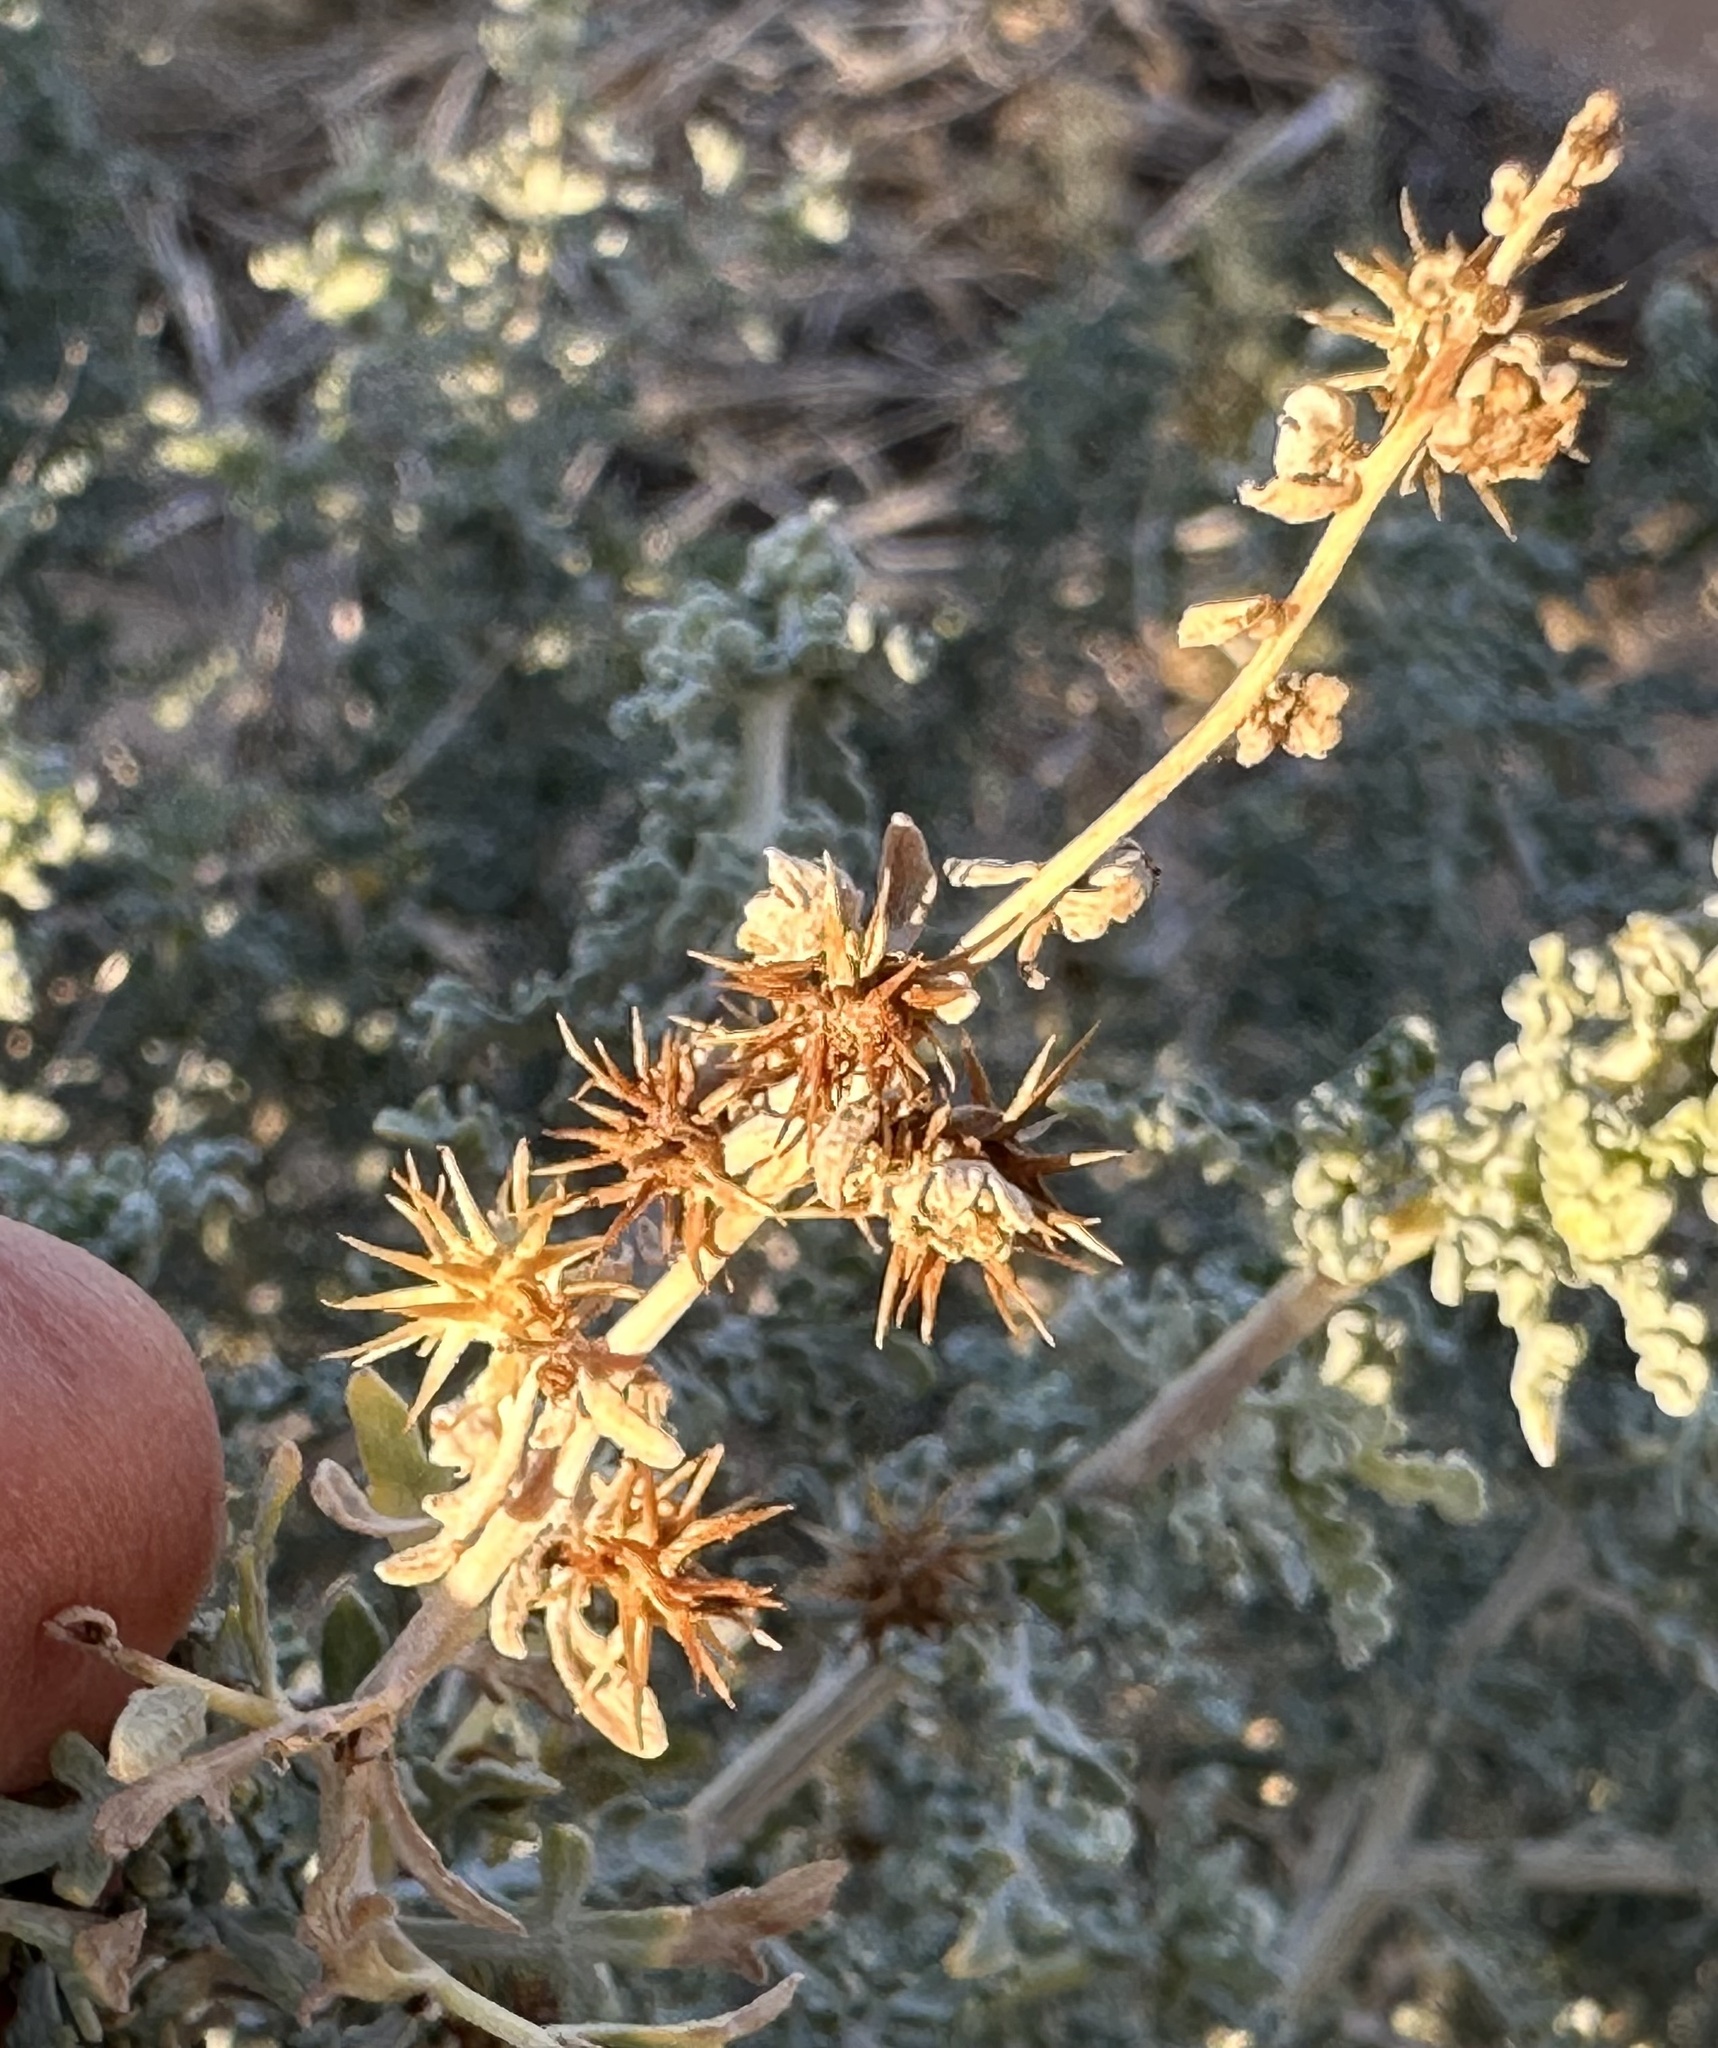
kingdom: Plantae
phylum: Tracheophyta
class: Magnoliopsida
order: Asterales
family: Asteraceae
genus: Ambrosia
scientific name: Ambrosia dumosa
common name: Bur-sage
